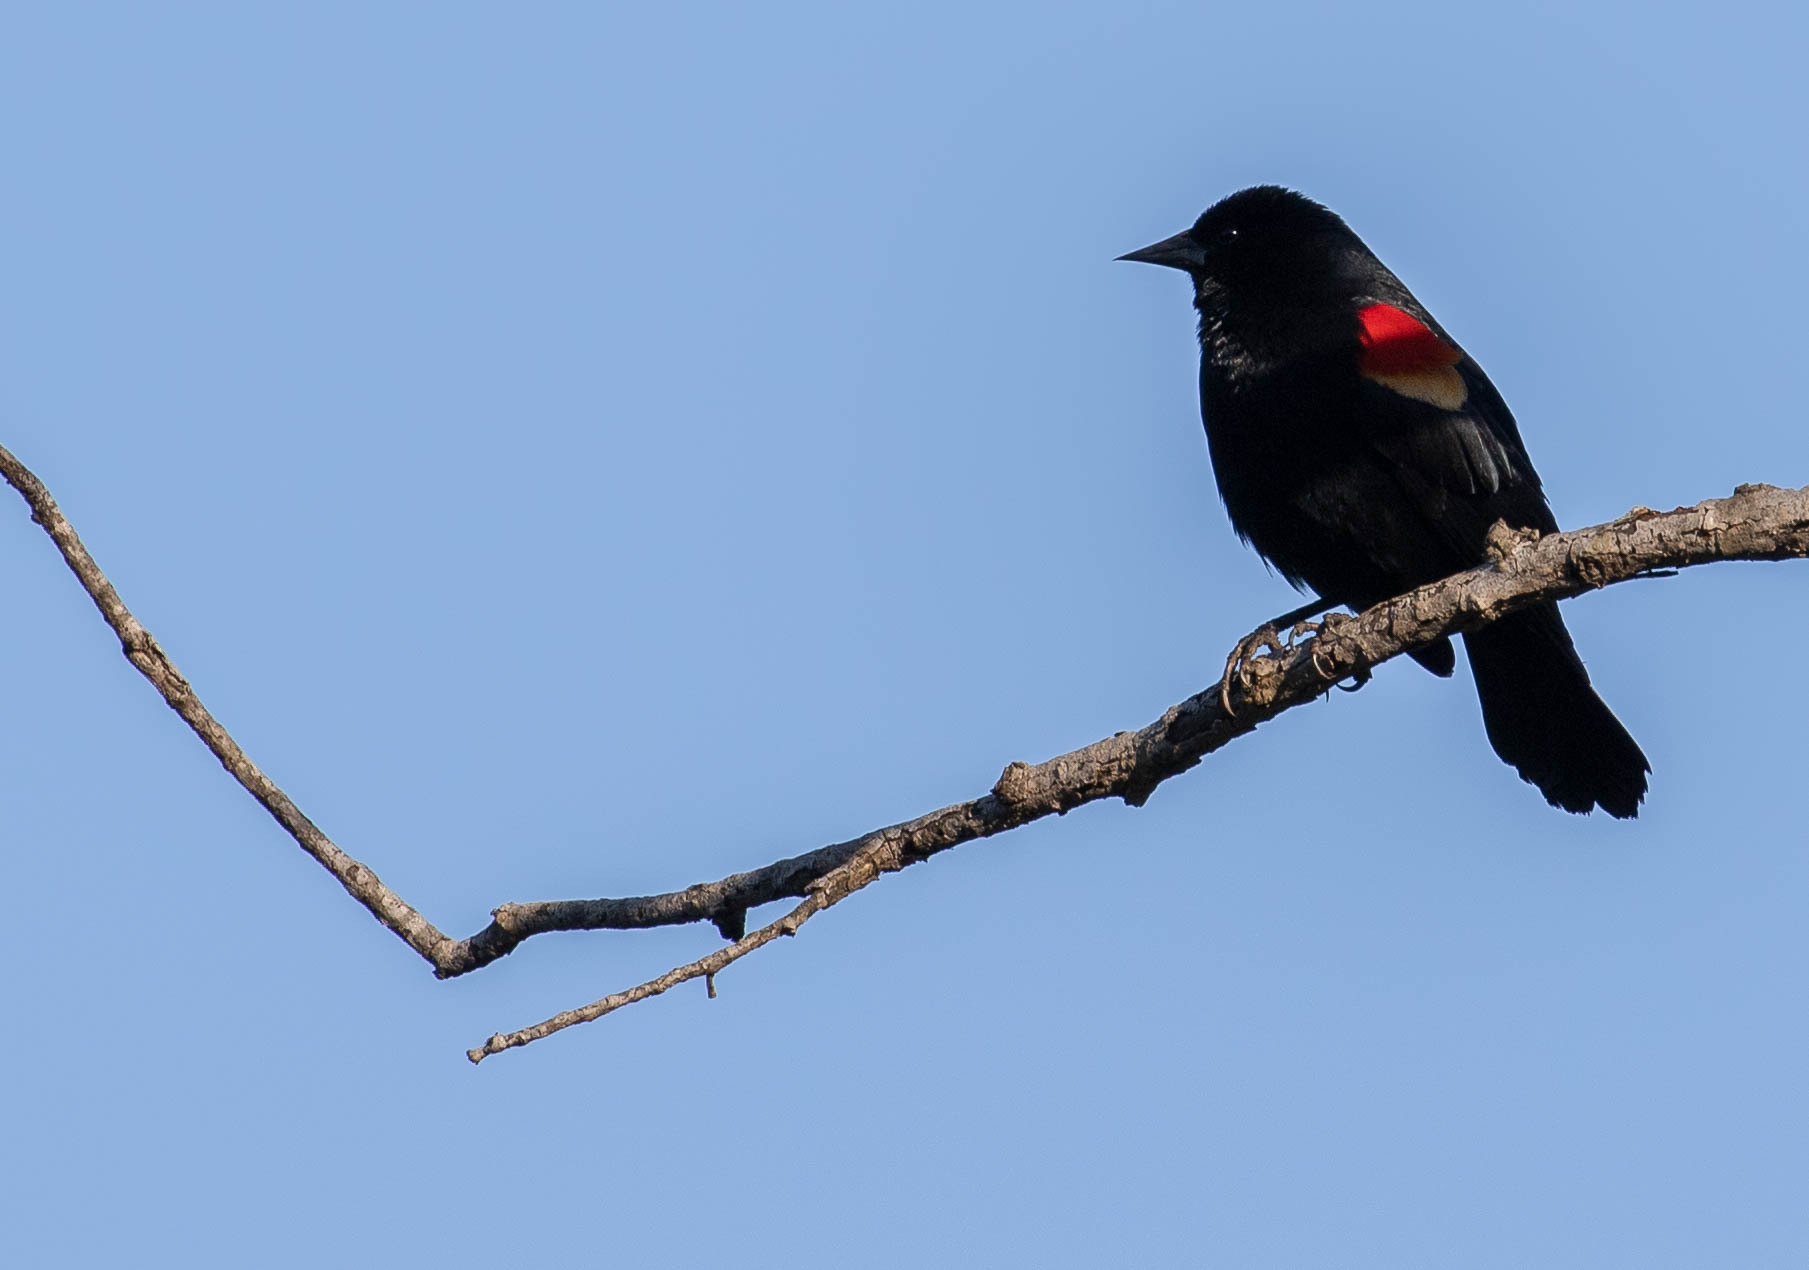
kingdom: Animalia
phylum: Chordata
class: Aves
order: Passeriformes
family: Icteridae
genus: Agelaius
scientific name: Agelaius phoeniceus
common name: Red-winged blackbird
